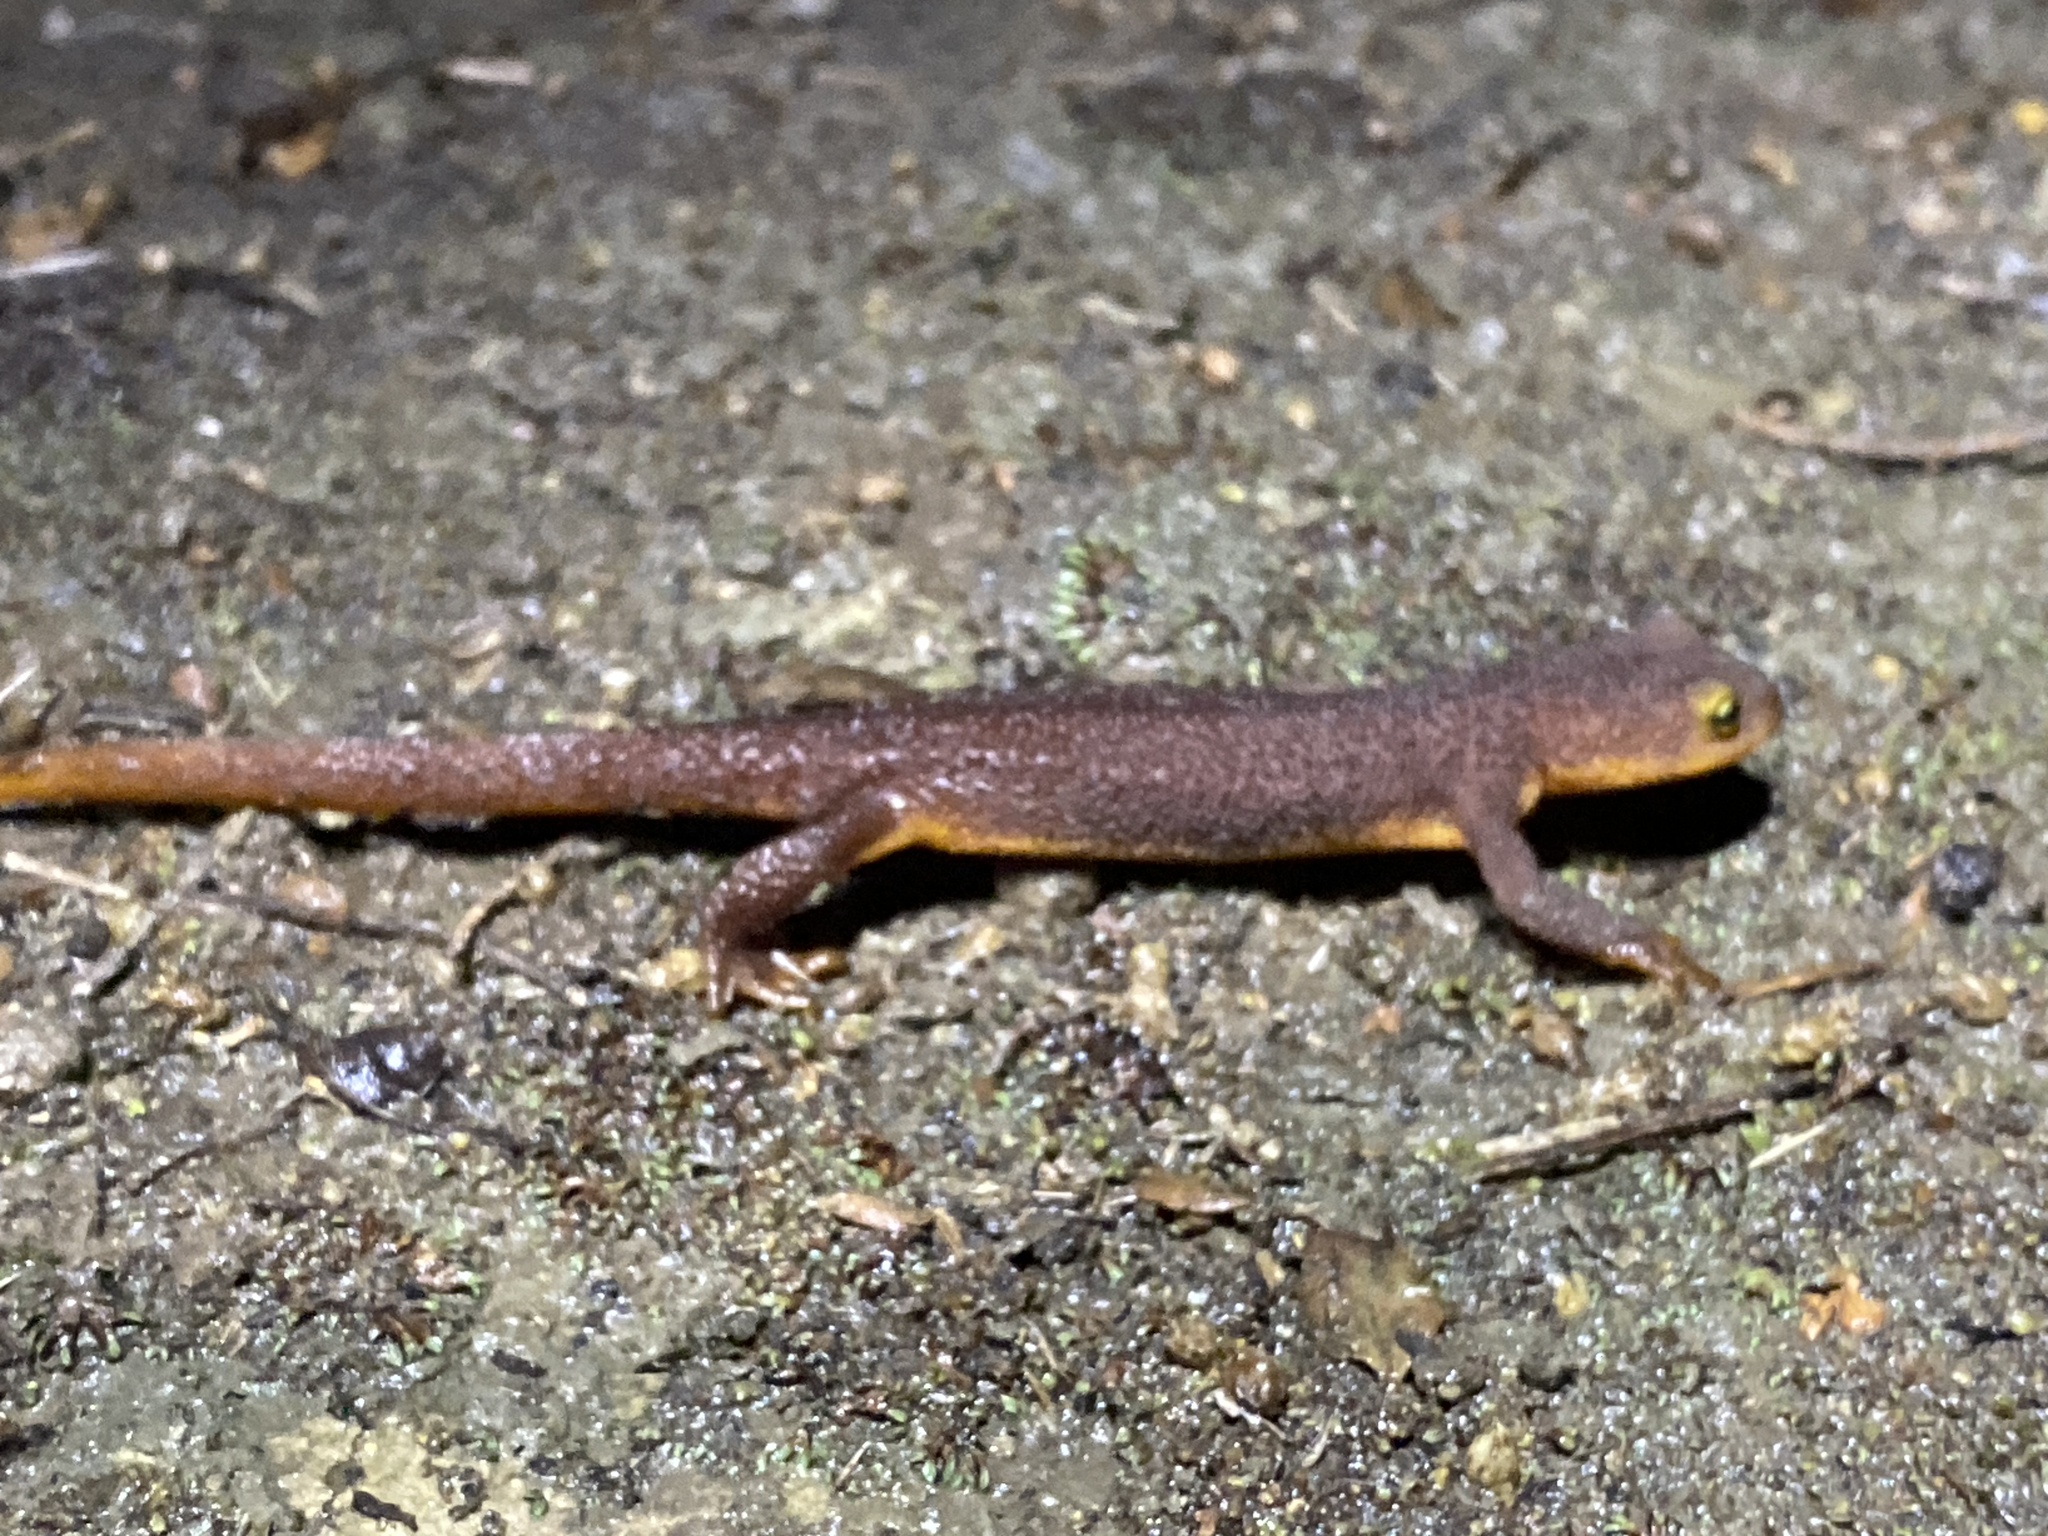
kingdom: Animalia
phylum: Chordata
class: Amphibia
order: Caudata
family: Salamandridae
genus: Taricha
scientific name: Taricha torosa
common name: California newt
